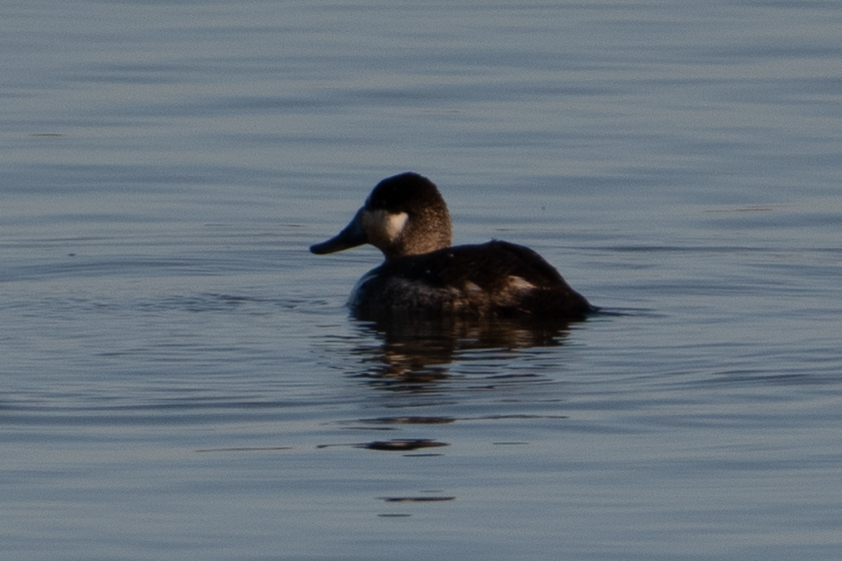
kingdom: Animalia
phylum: Chordata
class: Aves
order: Anseriformes
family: Anatidae
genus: Oxyura
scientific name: Oxyura jamaicensis
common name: Ruddy duck
